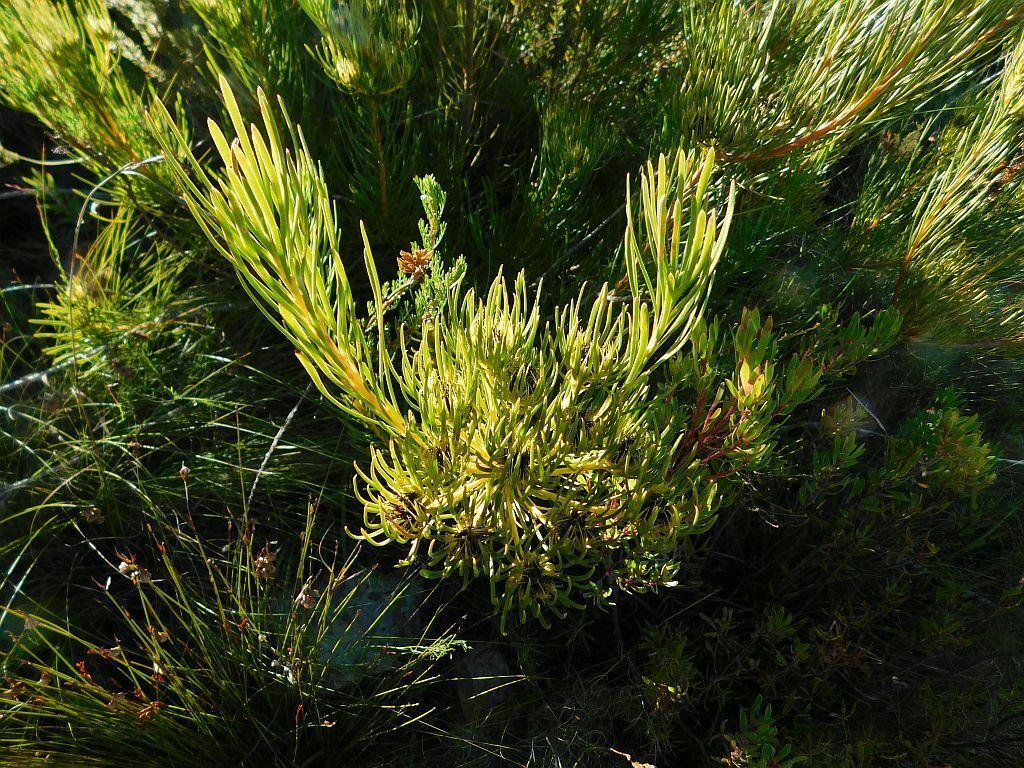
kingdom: Plantae
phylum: Tracheophyta
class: Magnoliopsida
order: Proteales
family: Proteaceae
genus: Aulax
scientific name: Aulax pallasia
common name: Needle-leaf featherbush
